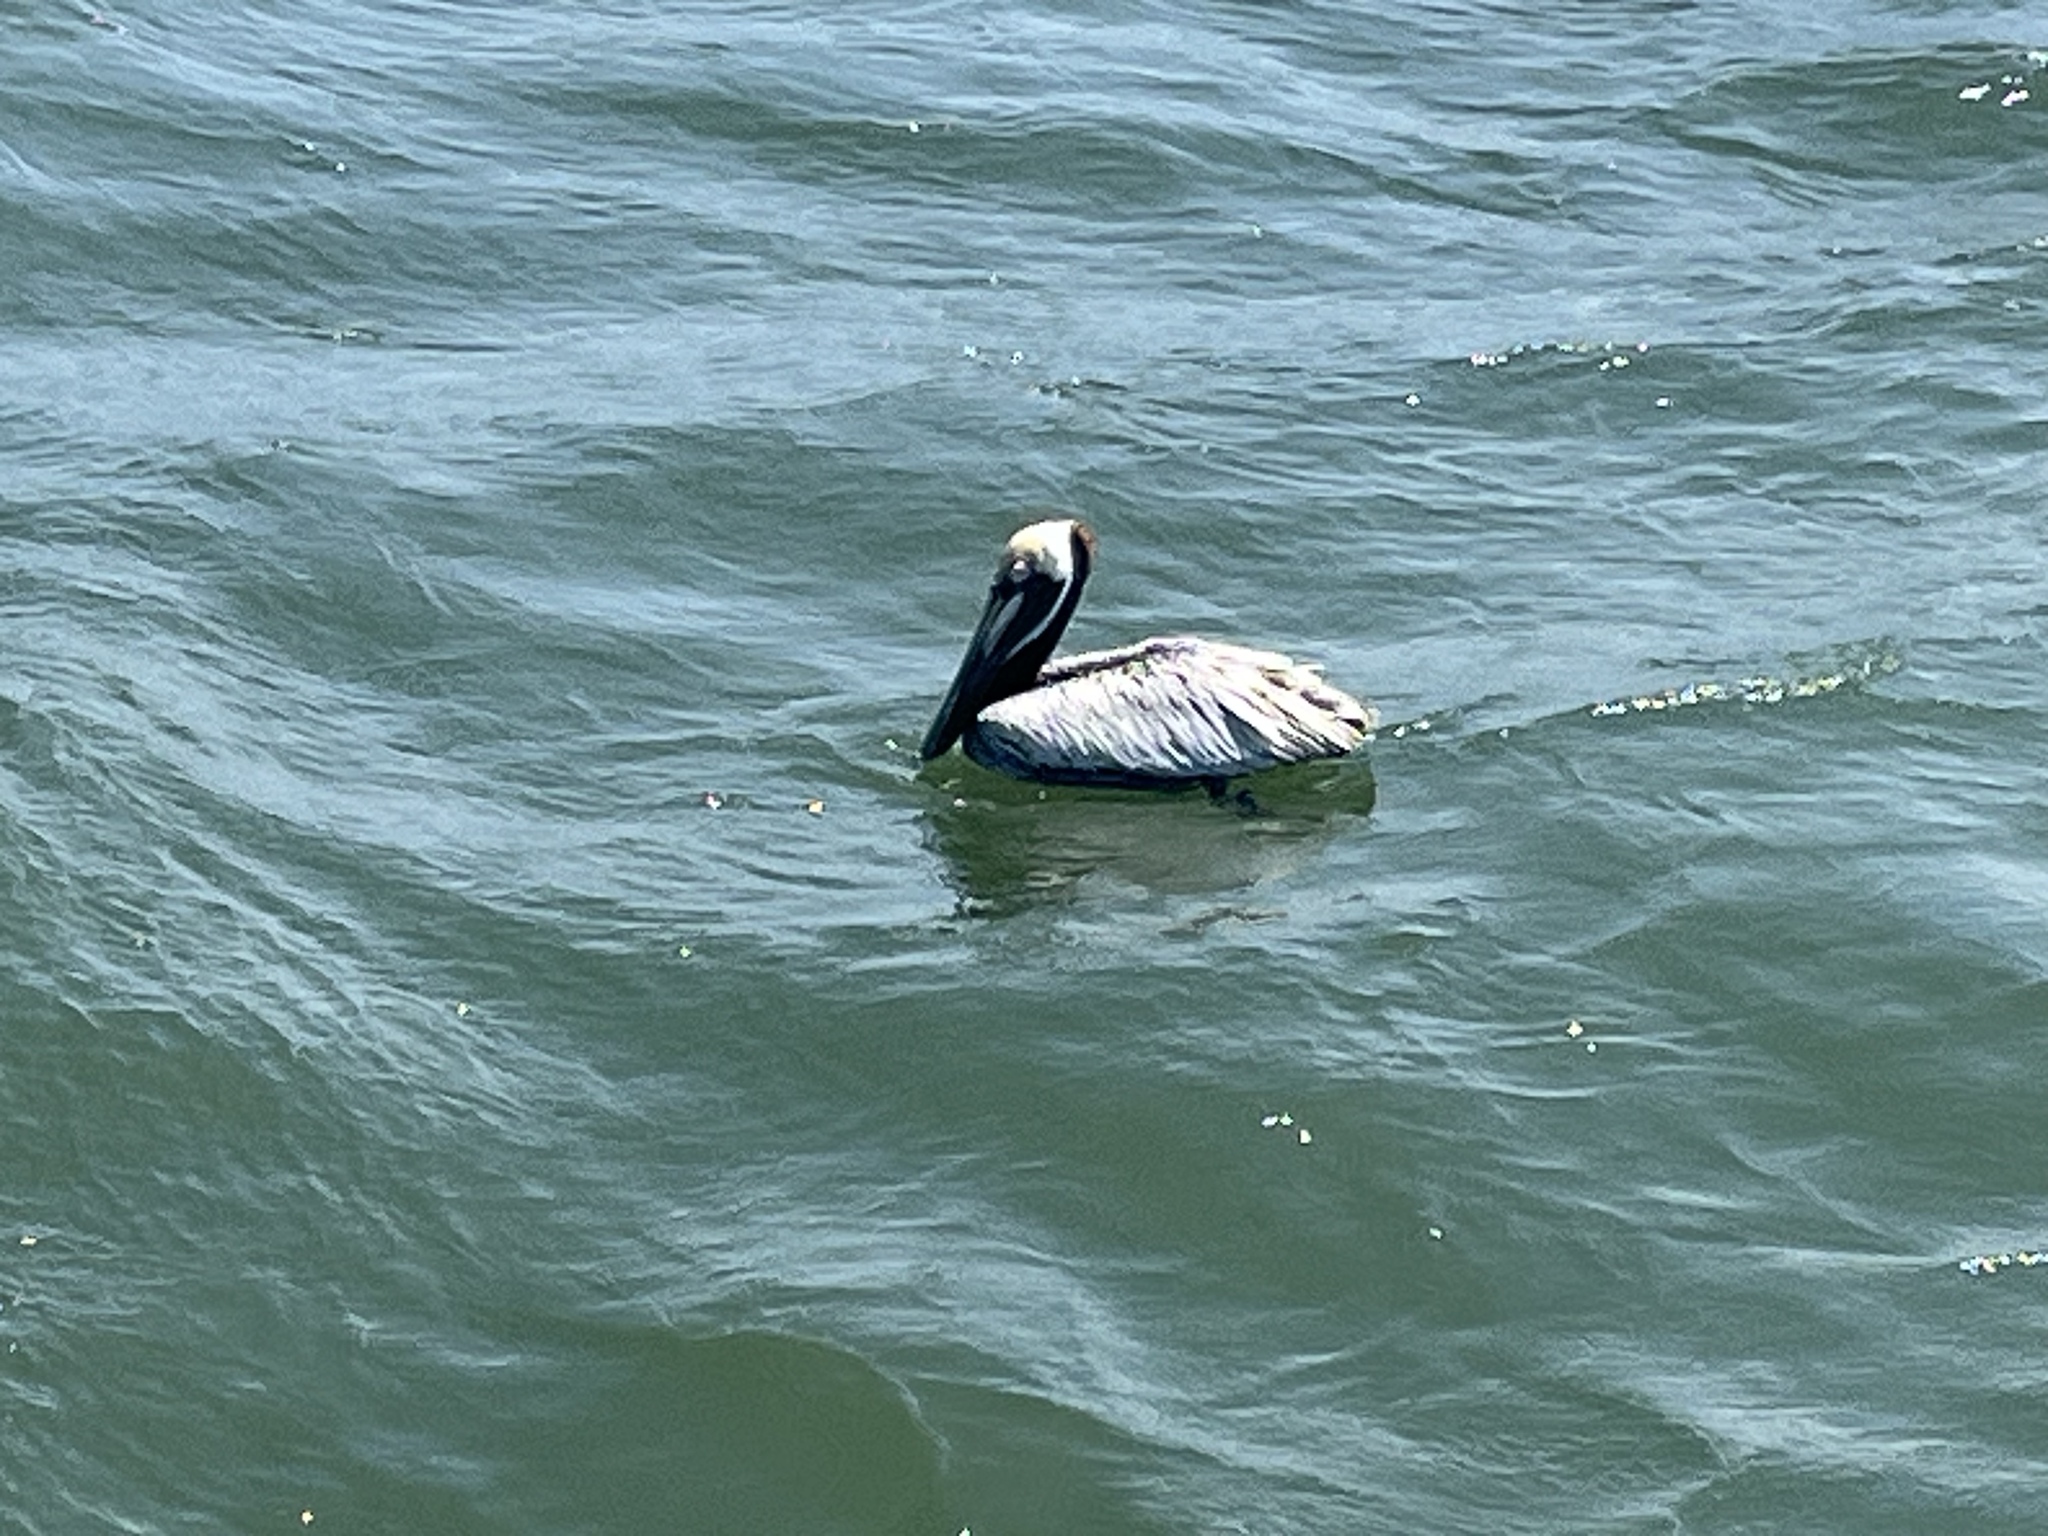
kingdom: Animalia
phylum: Chordata
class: Aves
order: Pelecaniformes
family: Pelecanidae
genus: Pelecanus
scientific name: Pelecanus occidentalis
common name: Brown pelican
